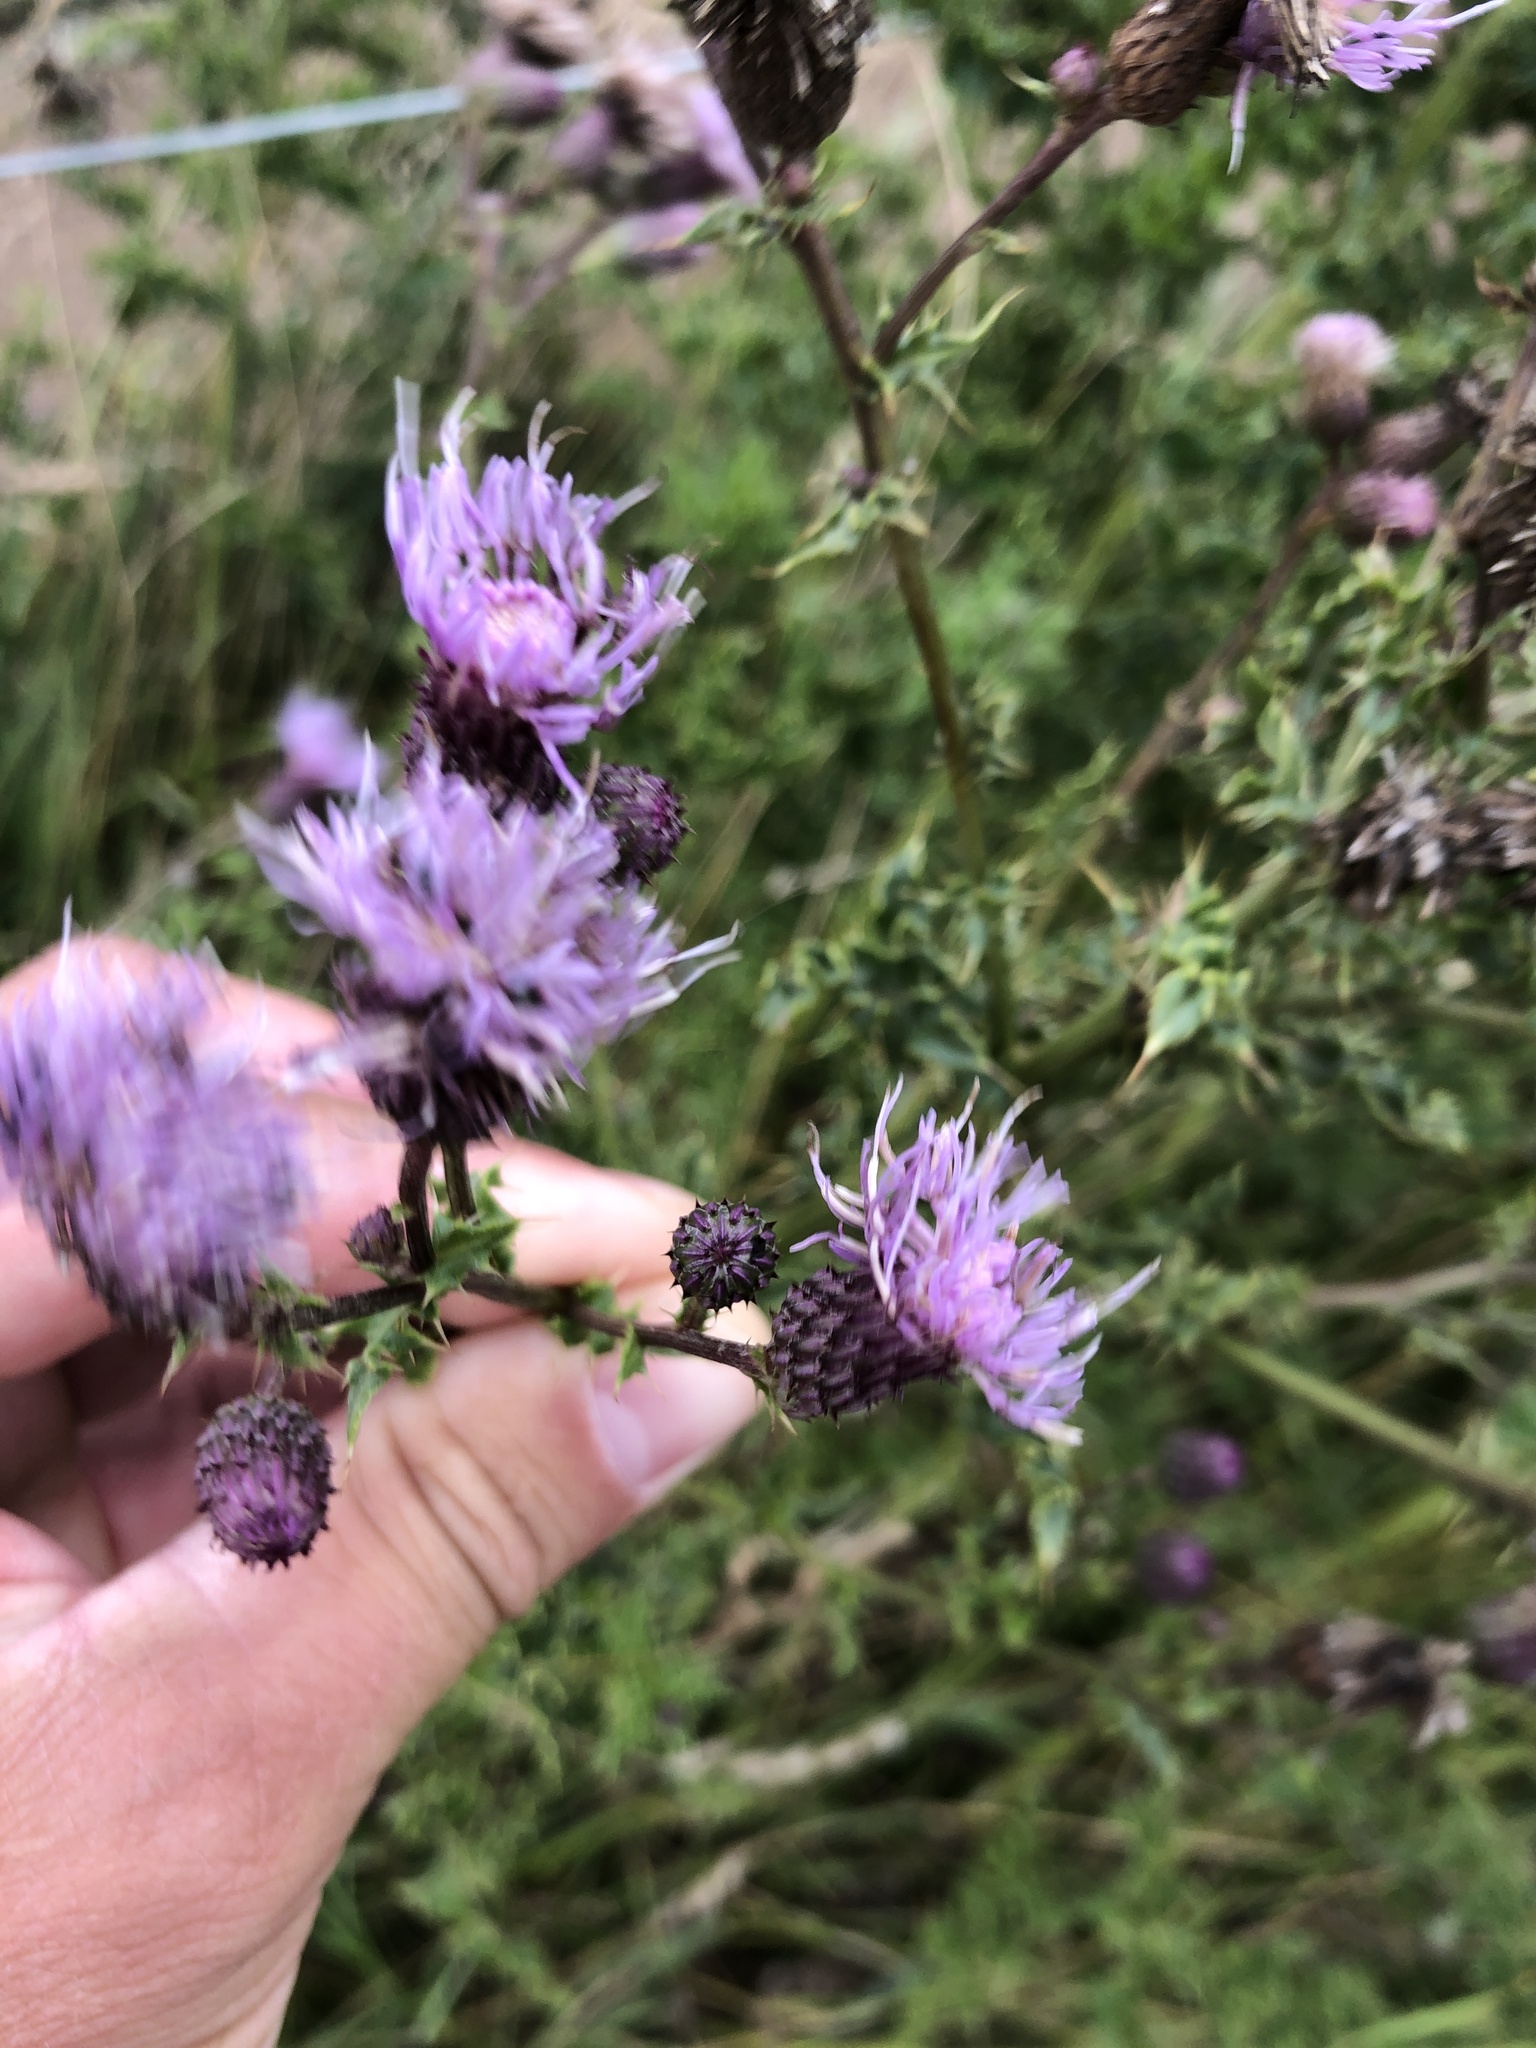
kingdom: Plantae
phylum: Tracheophyta
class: Magnoliopsida
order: Asterales
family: Asteraceae
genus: Cirsium
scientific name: Cirsium arvense
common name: Creeping thistle
